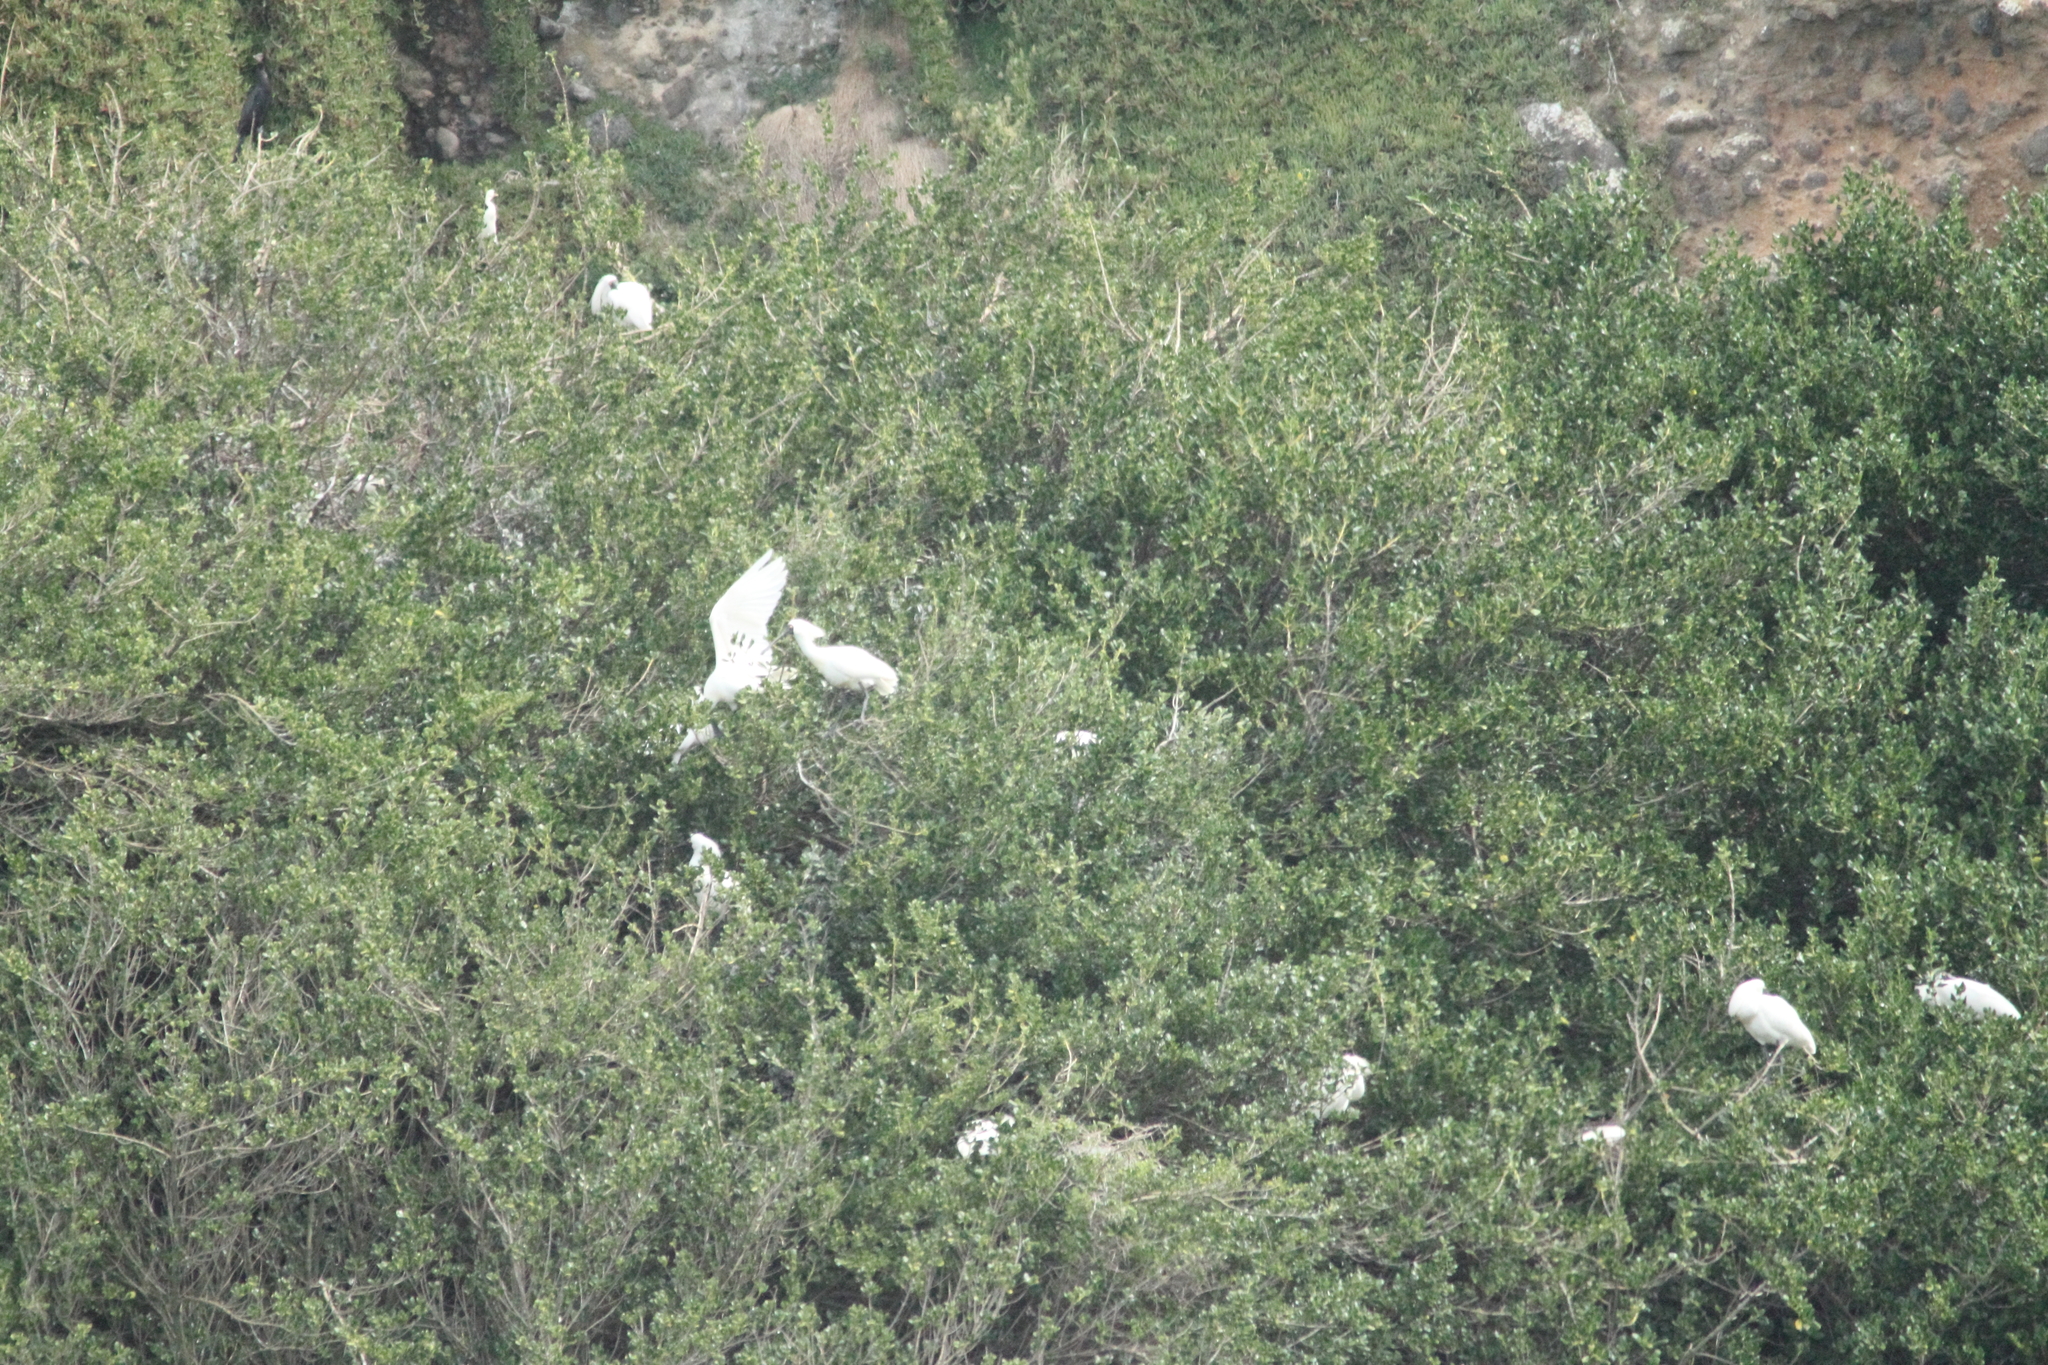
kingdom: Animalia
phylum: Chordata
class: Aves
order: Pelecaniformes
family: Threskiornithidae
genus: Platalea
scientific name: Platalea regia
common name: Royal spoonbill
